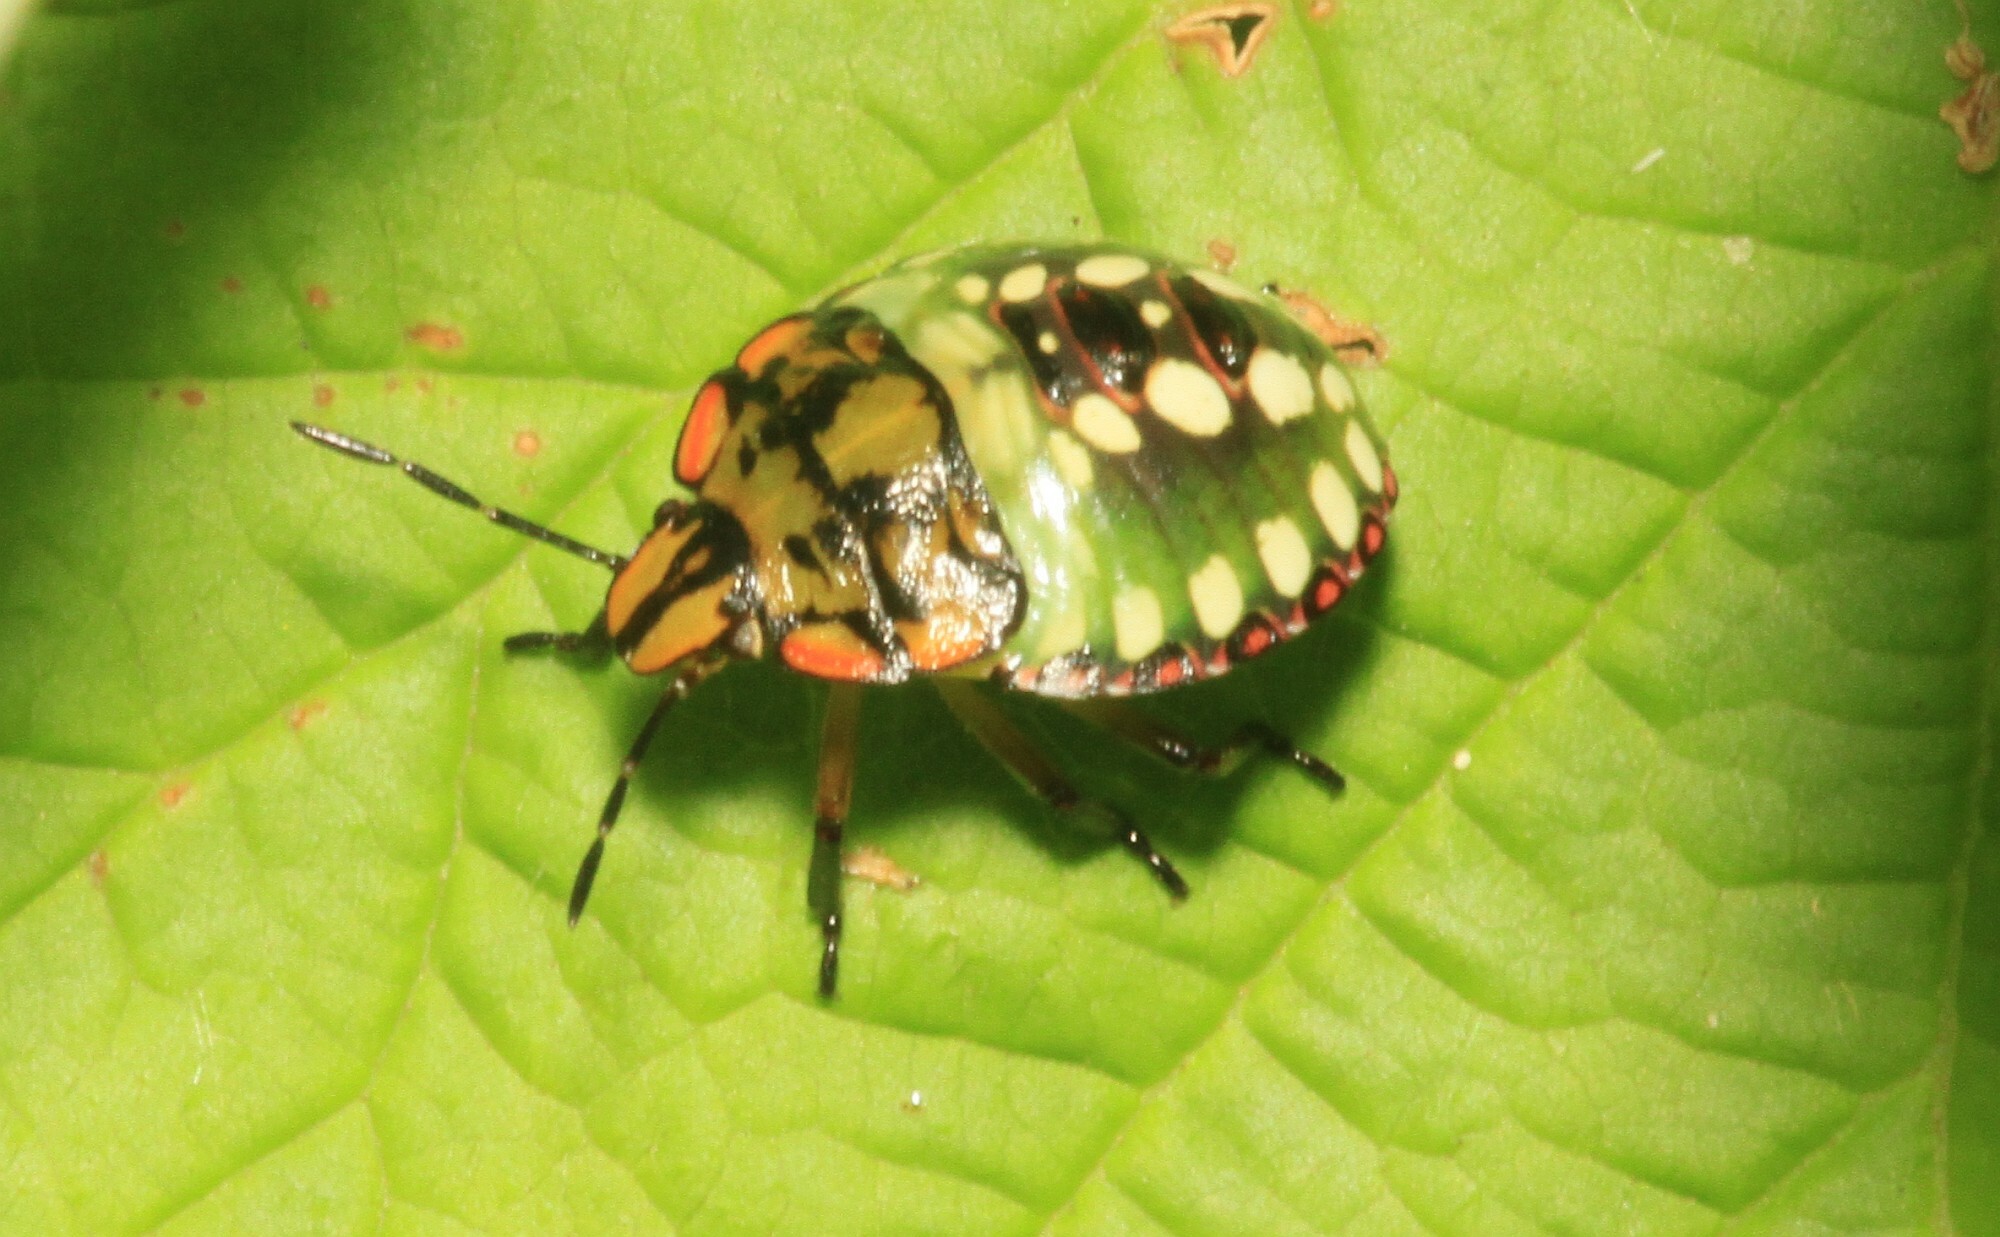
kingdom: Animalia
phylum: Arthropoda
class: Insecta
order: Hemiptera
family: Pentatomidae
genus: Nezara
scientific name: Nezara viridula
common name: Southern green stink bug
